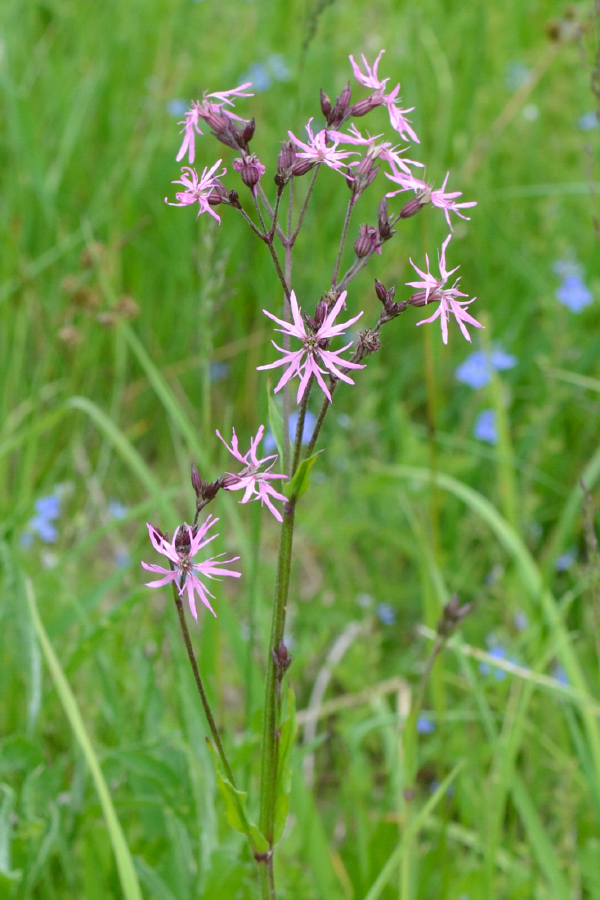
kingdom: Plantae
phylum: Tracheophyta
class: Magnoliopsida
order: Caryophyllales
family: Caryophyllaceae
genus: Silene
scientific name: Silene flos-cuculi
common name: Ragged-robin
